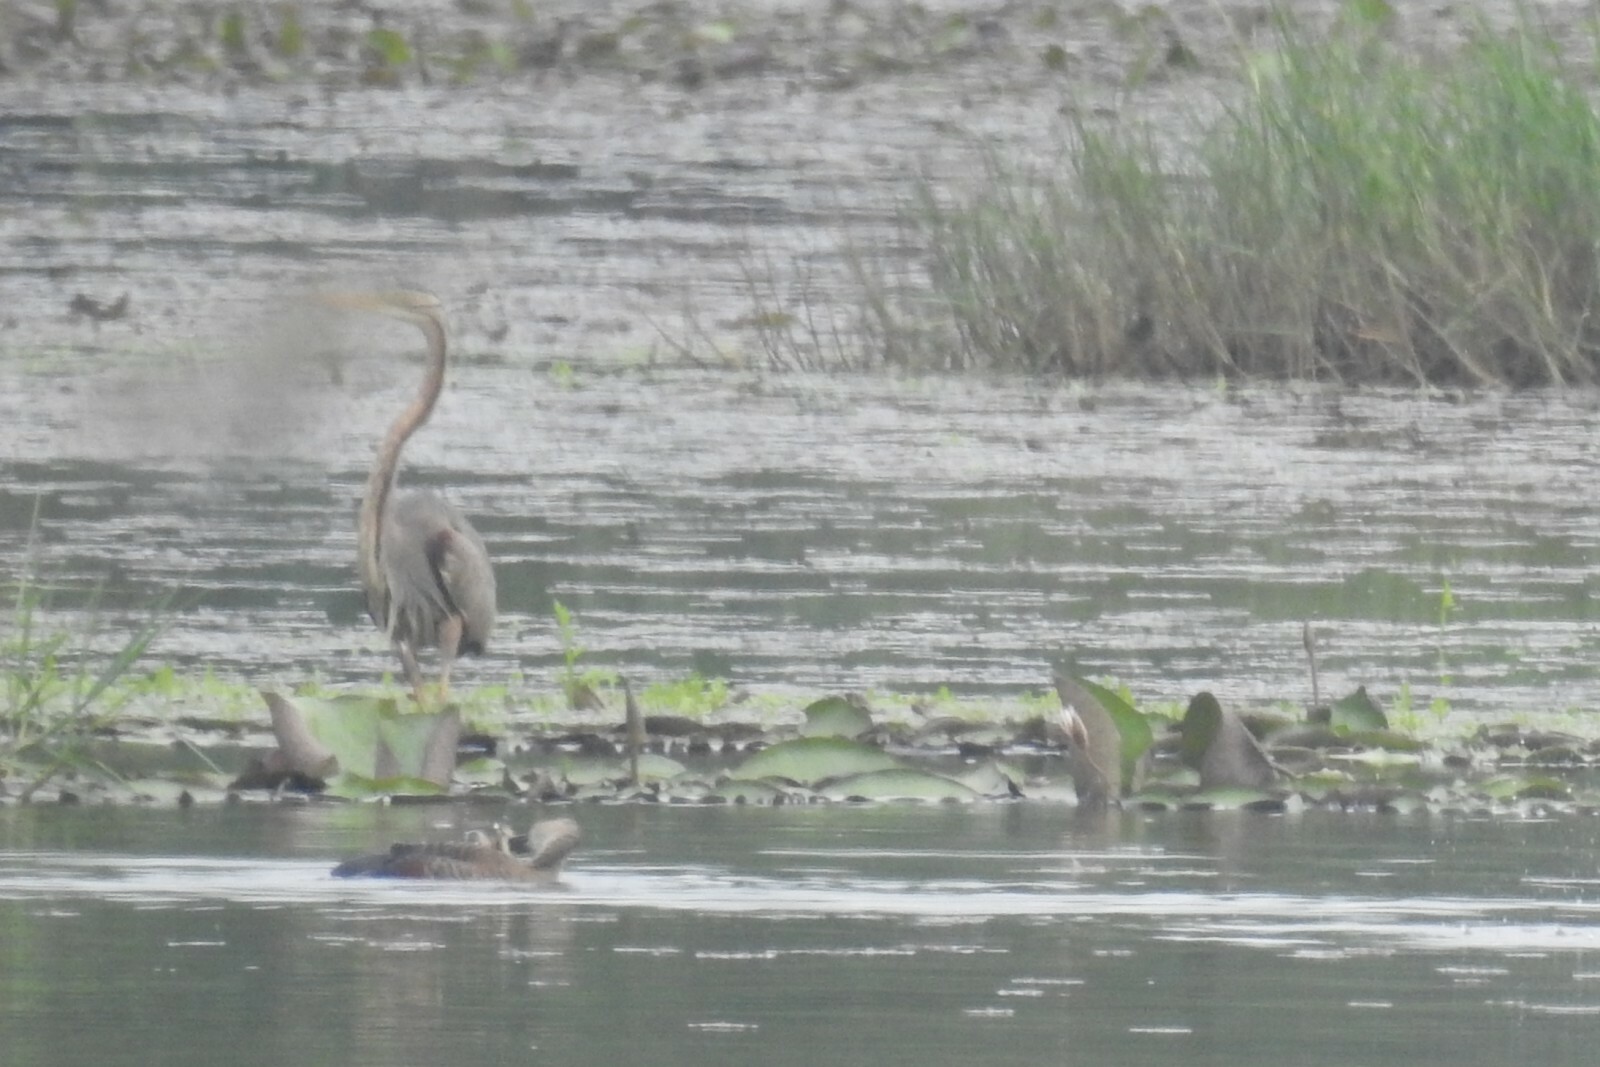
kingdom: Animalia
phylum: Chordata
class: Aves
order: Pelecaniformes
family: Ardeidae
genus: Ardea
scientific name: Ardea purpurea
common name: Purple heron
